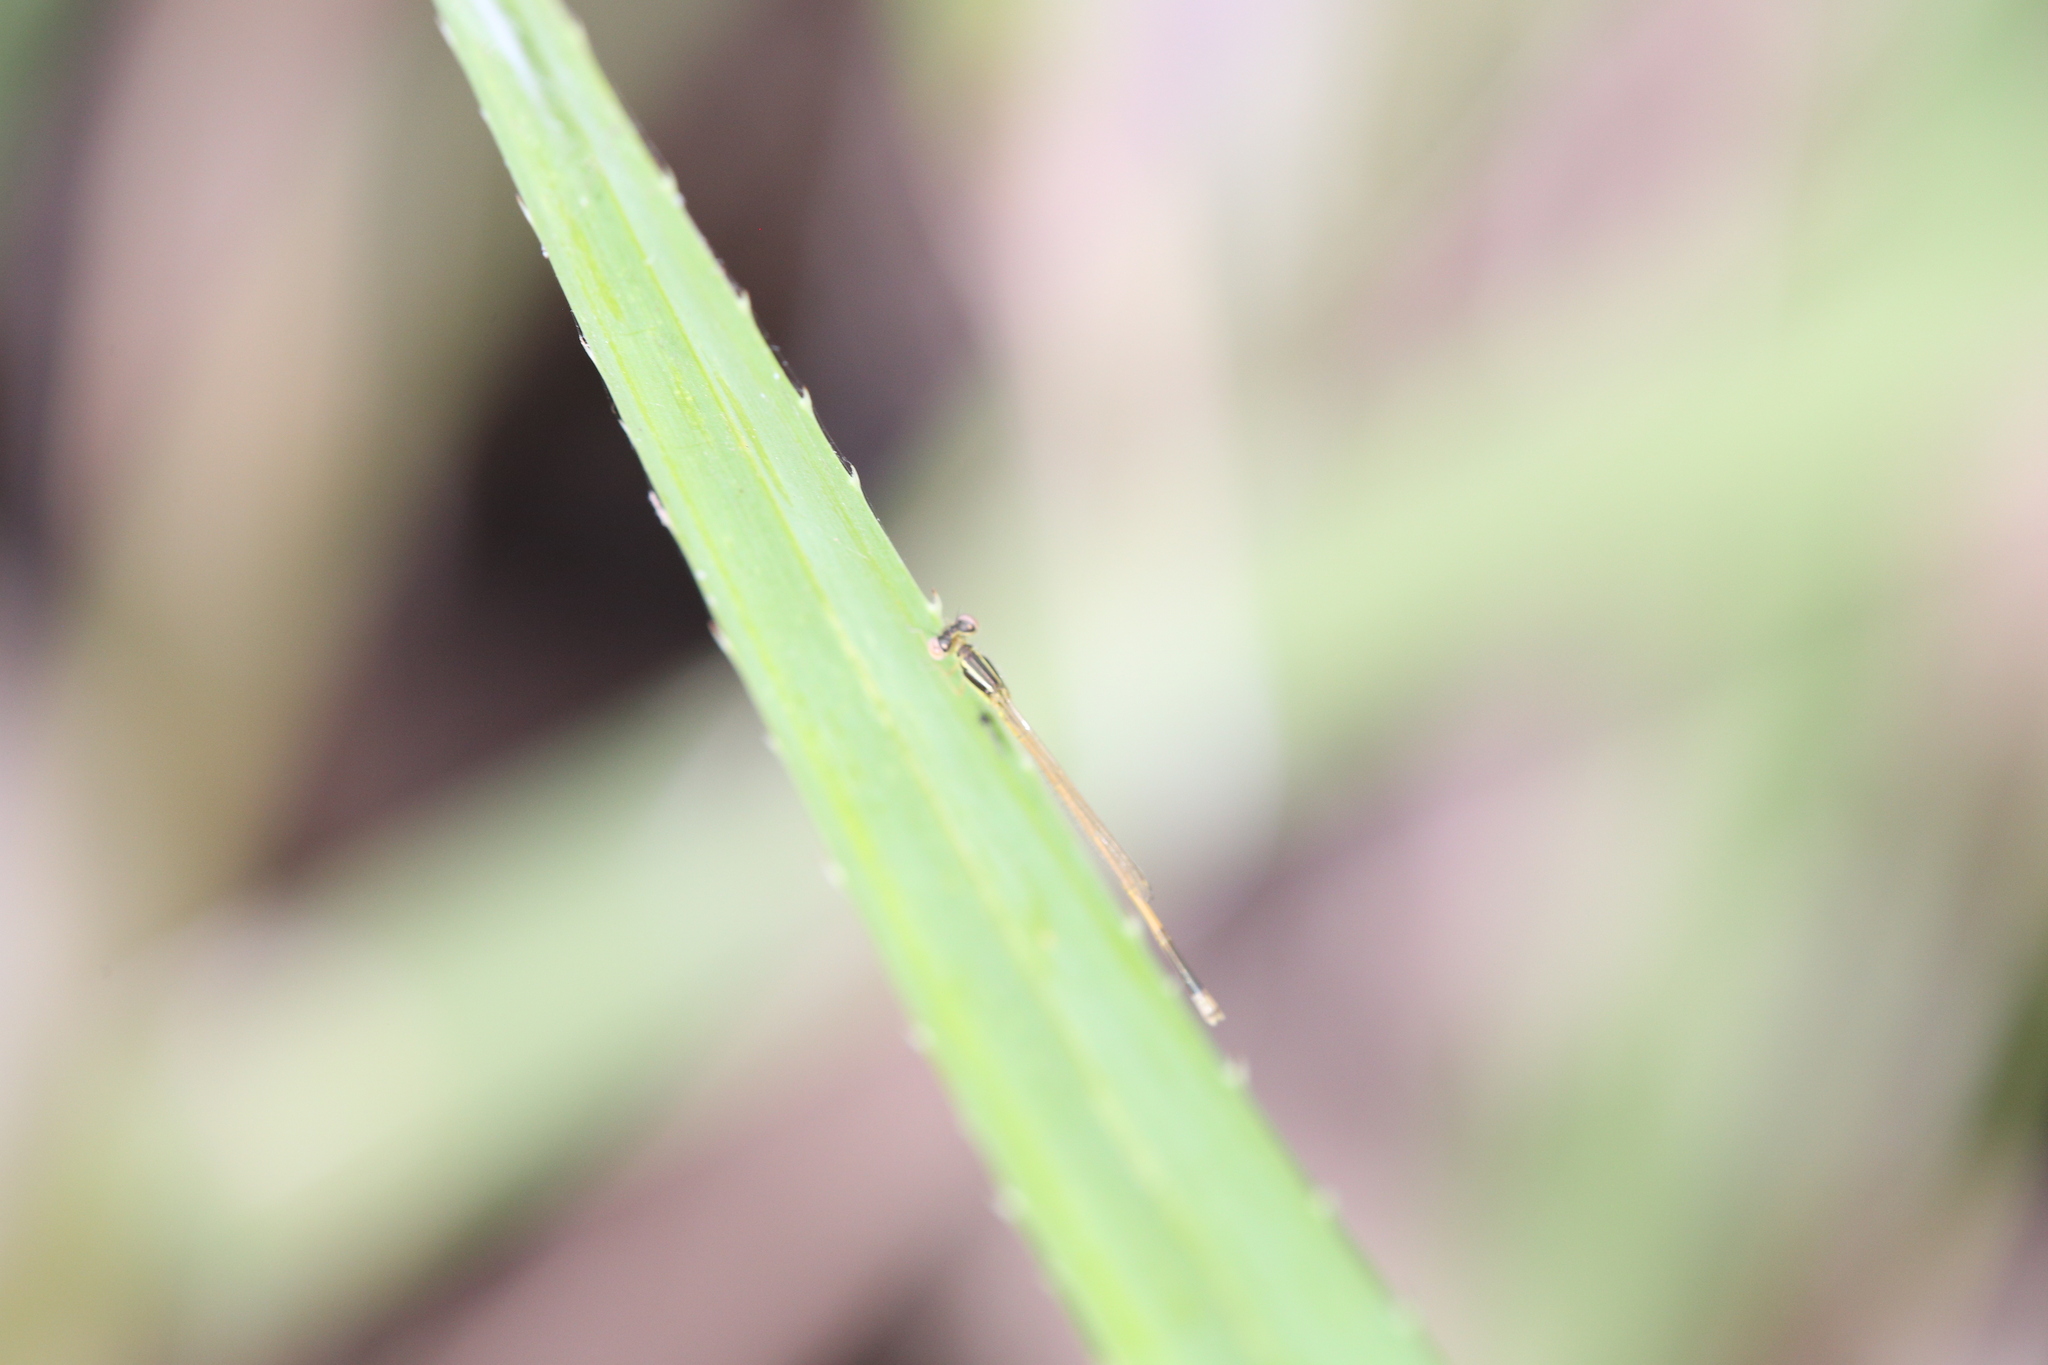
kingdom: Animalia
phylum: Arthropoda
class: Insecta
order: Odonata
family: Coenagrionidae
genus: Ischnura
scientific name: Ischnura aurora
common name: Gossamer damselfly
